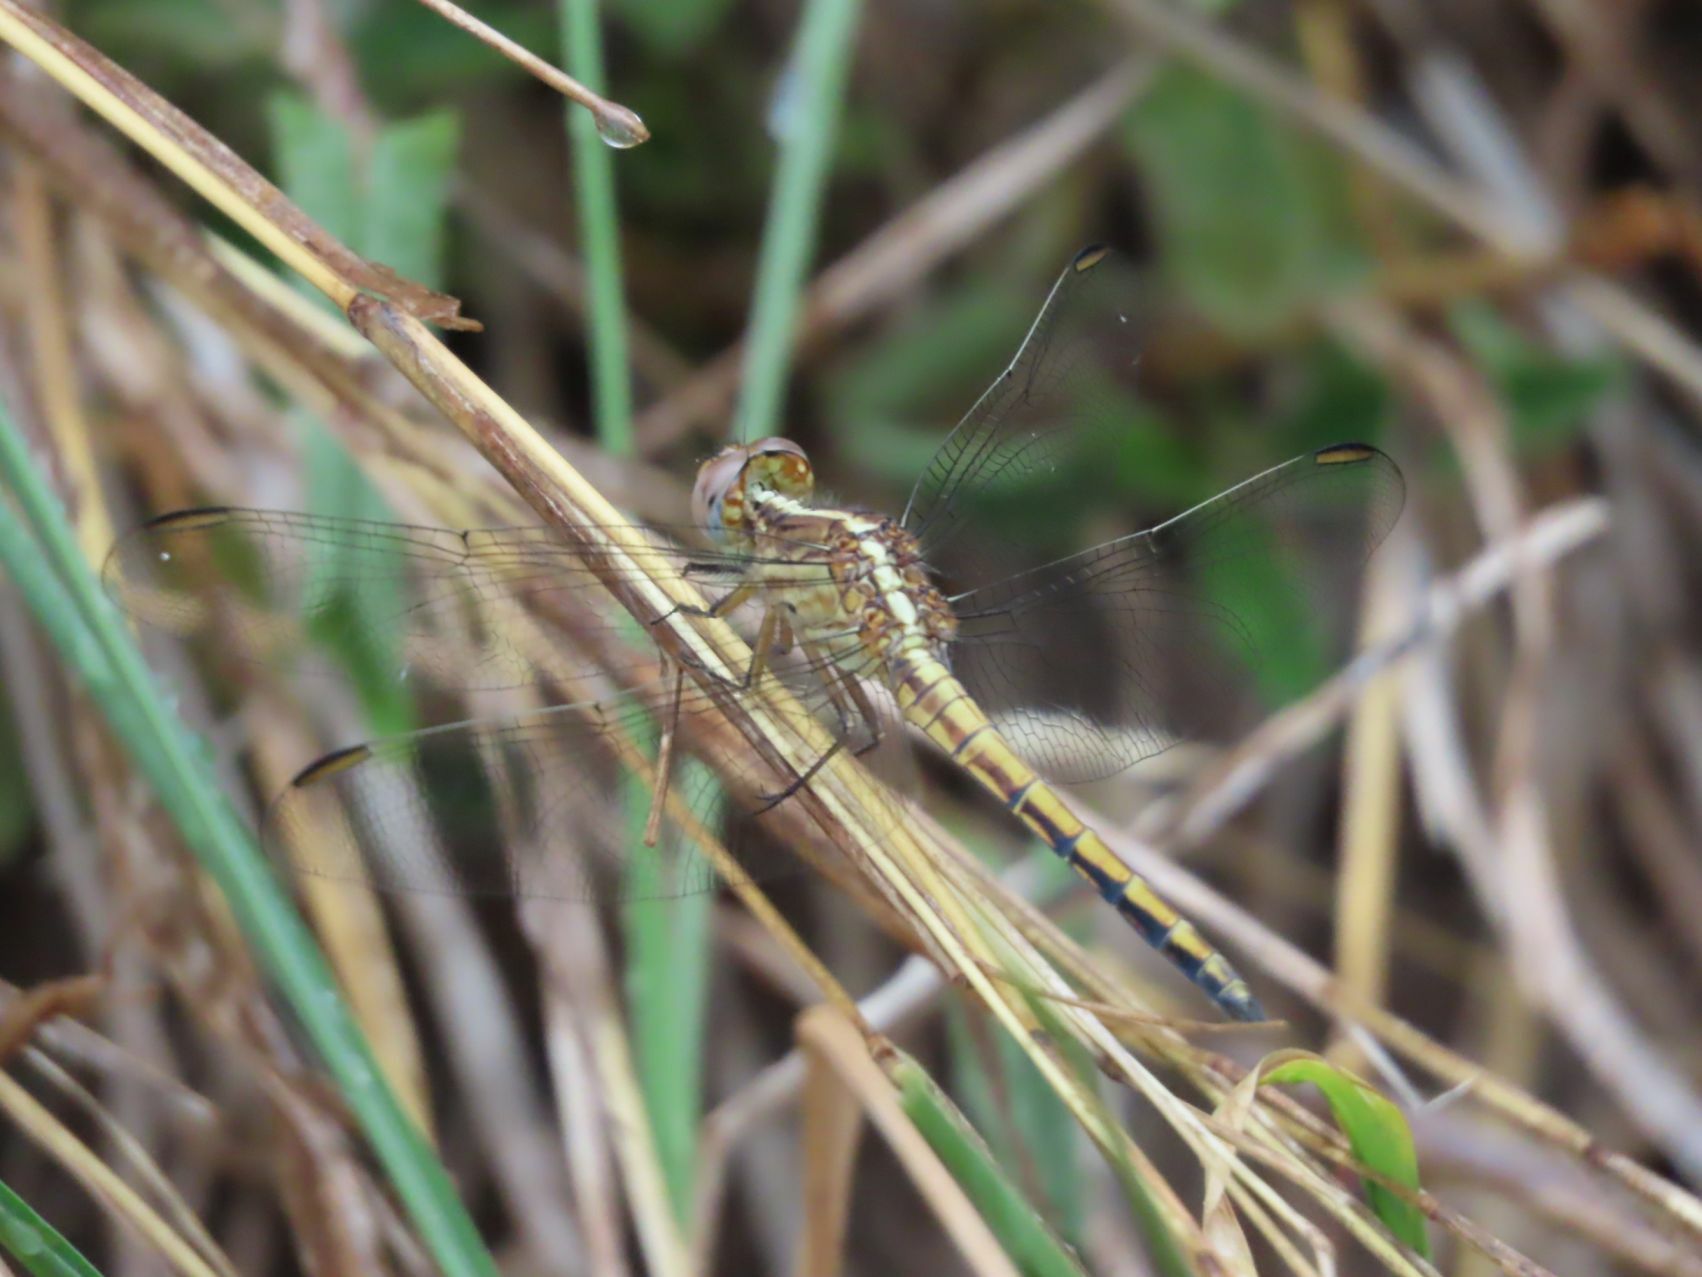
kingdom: Animalia
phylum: Arthropoda
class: Insecta
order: Odonata
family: Libellulidae
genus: Nesciothemis
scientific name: Nesciothemis farinosa
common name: Eastern blacktail
